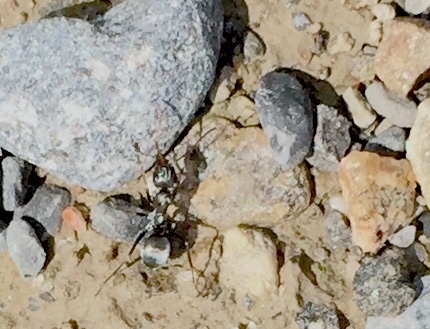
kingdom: Animalia
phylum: Arthropoda
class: Insecta
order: Hymenoptera
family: Formicidae
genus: Camponotus
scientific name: Camponotus pennsylvanicus
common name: Black carpenter ant
